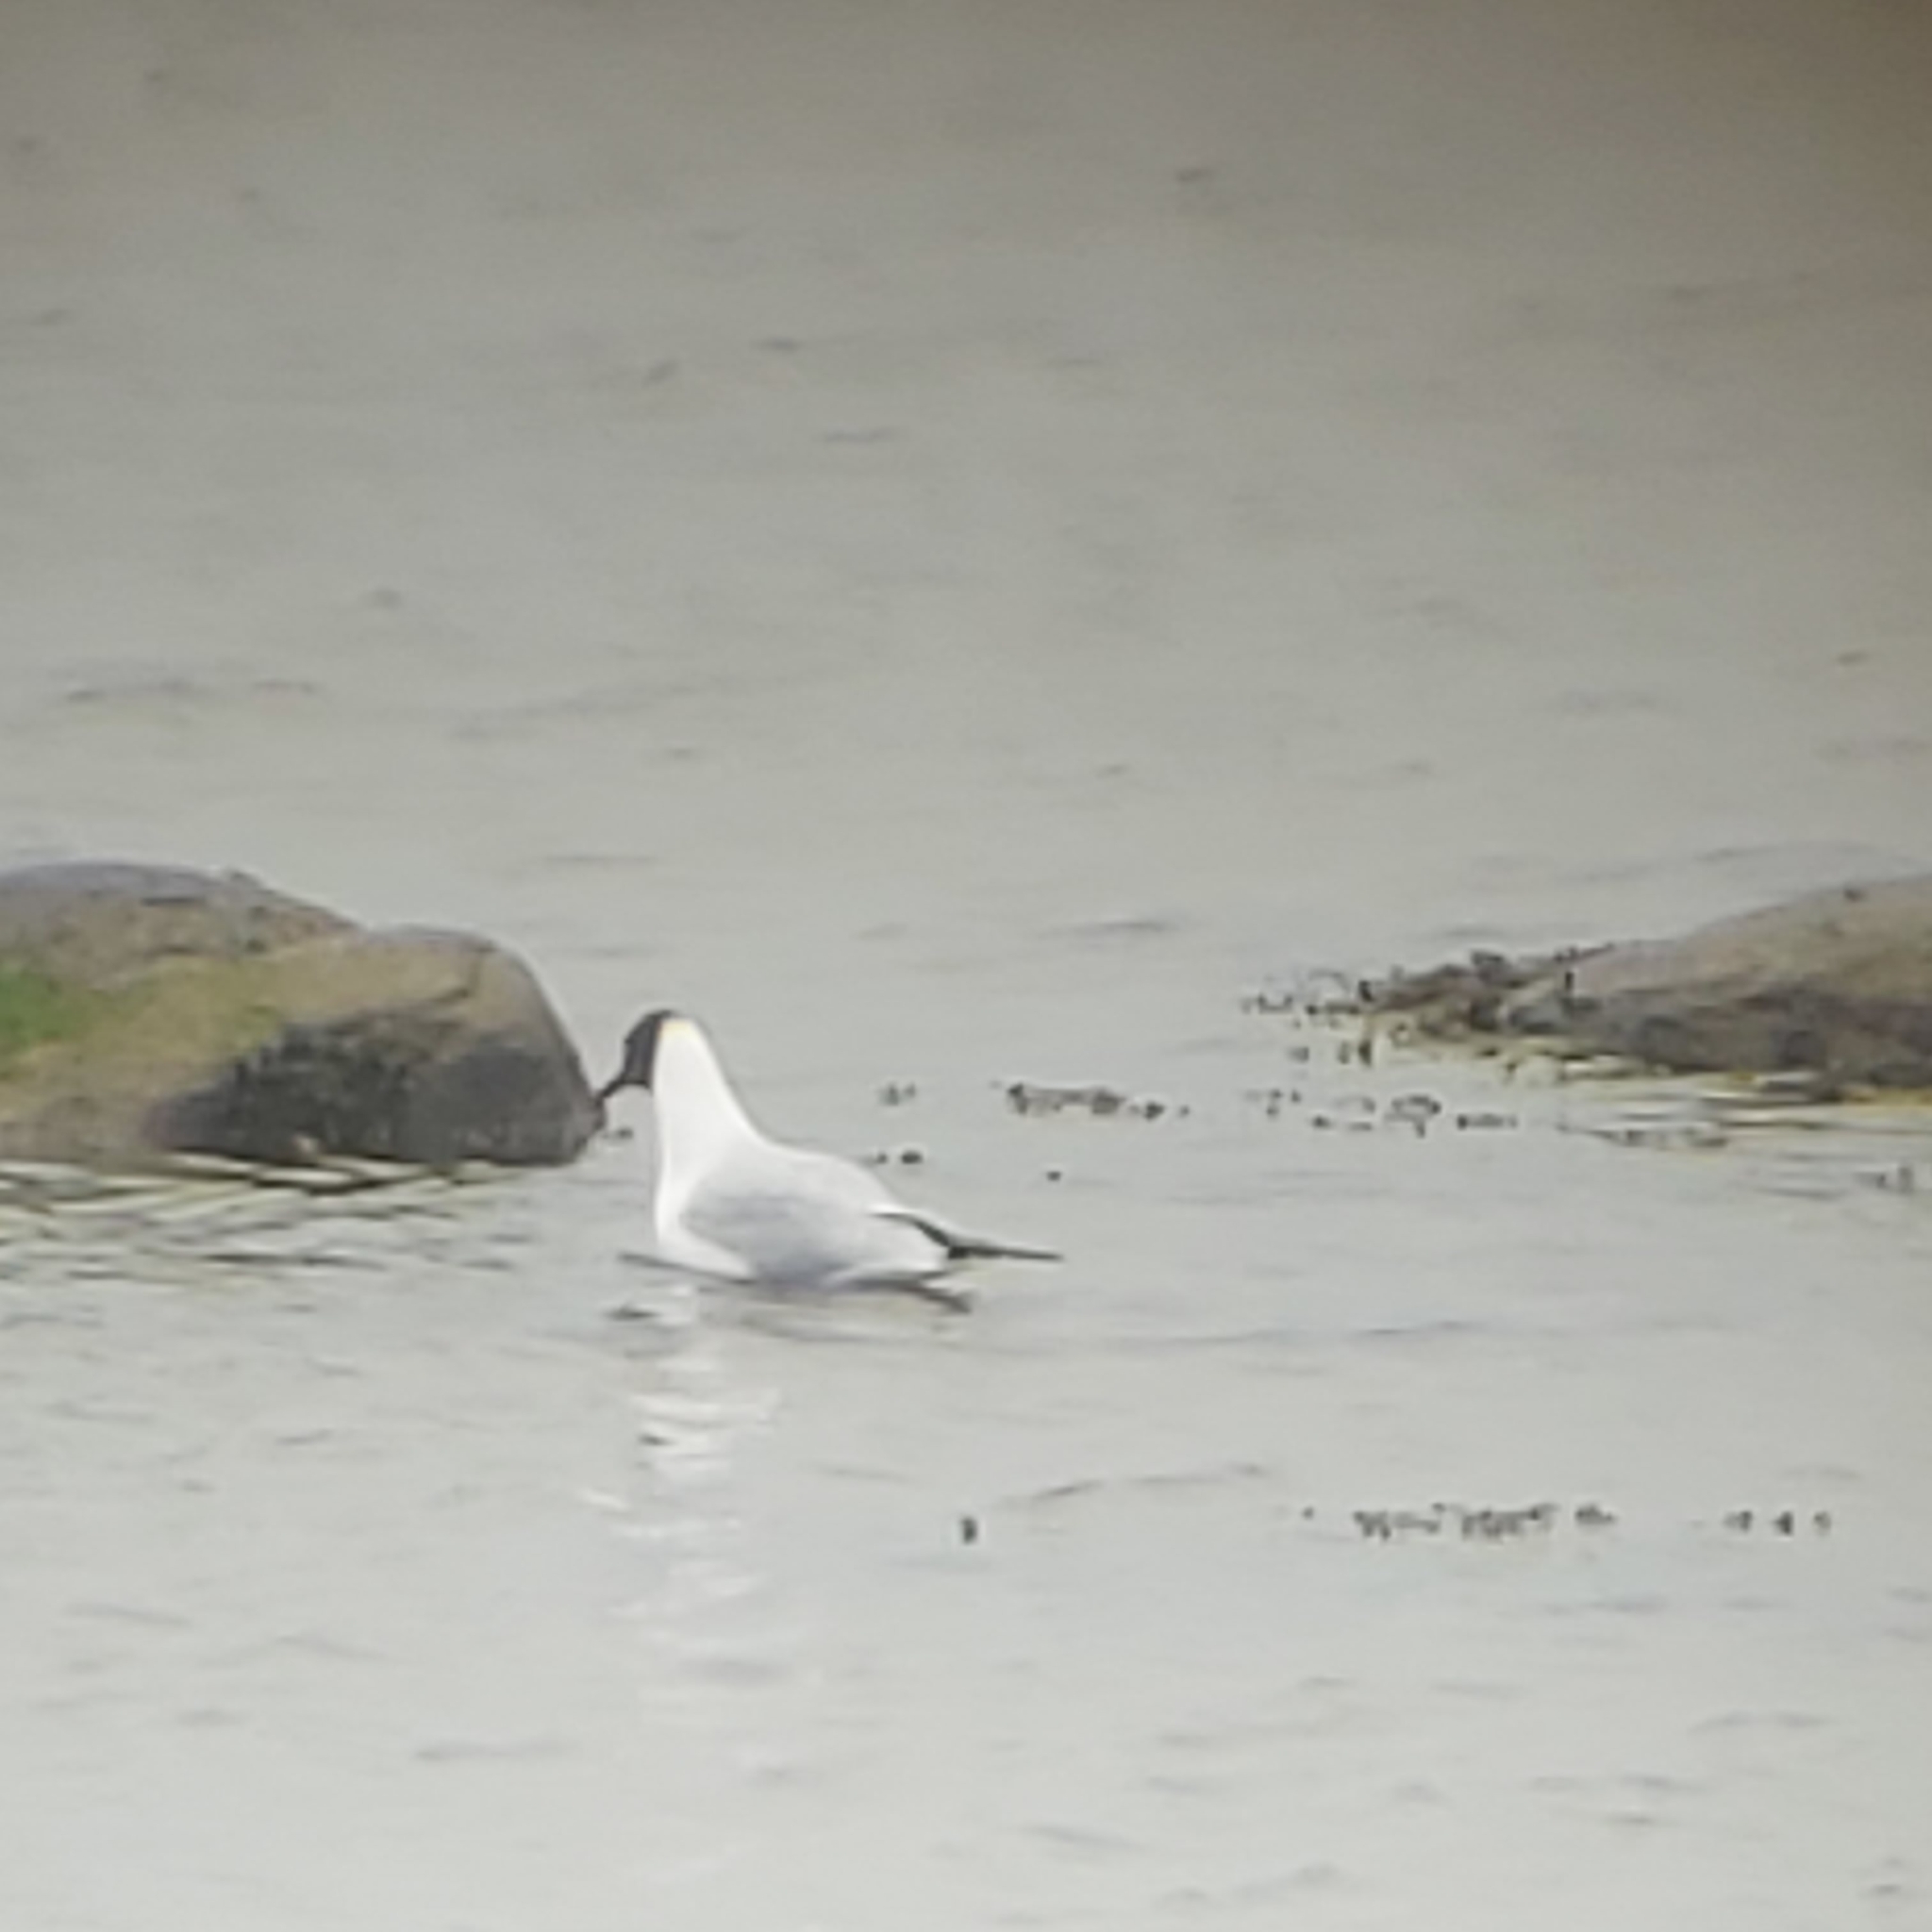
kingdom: Animalia
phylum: Chordata
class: Aves
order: Charadriiformes
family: Laridae
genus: Chroicocephalus
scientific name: Chroicocephalus ridibundus
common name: Black-headed gull
